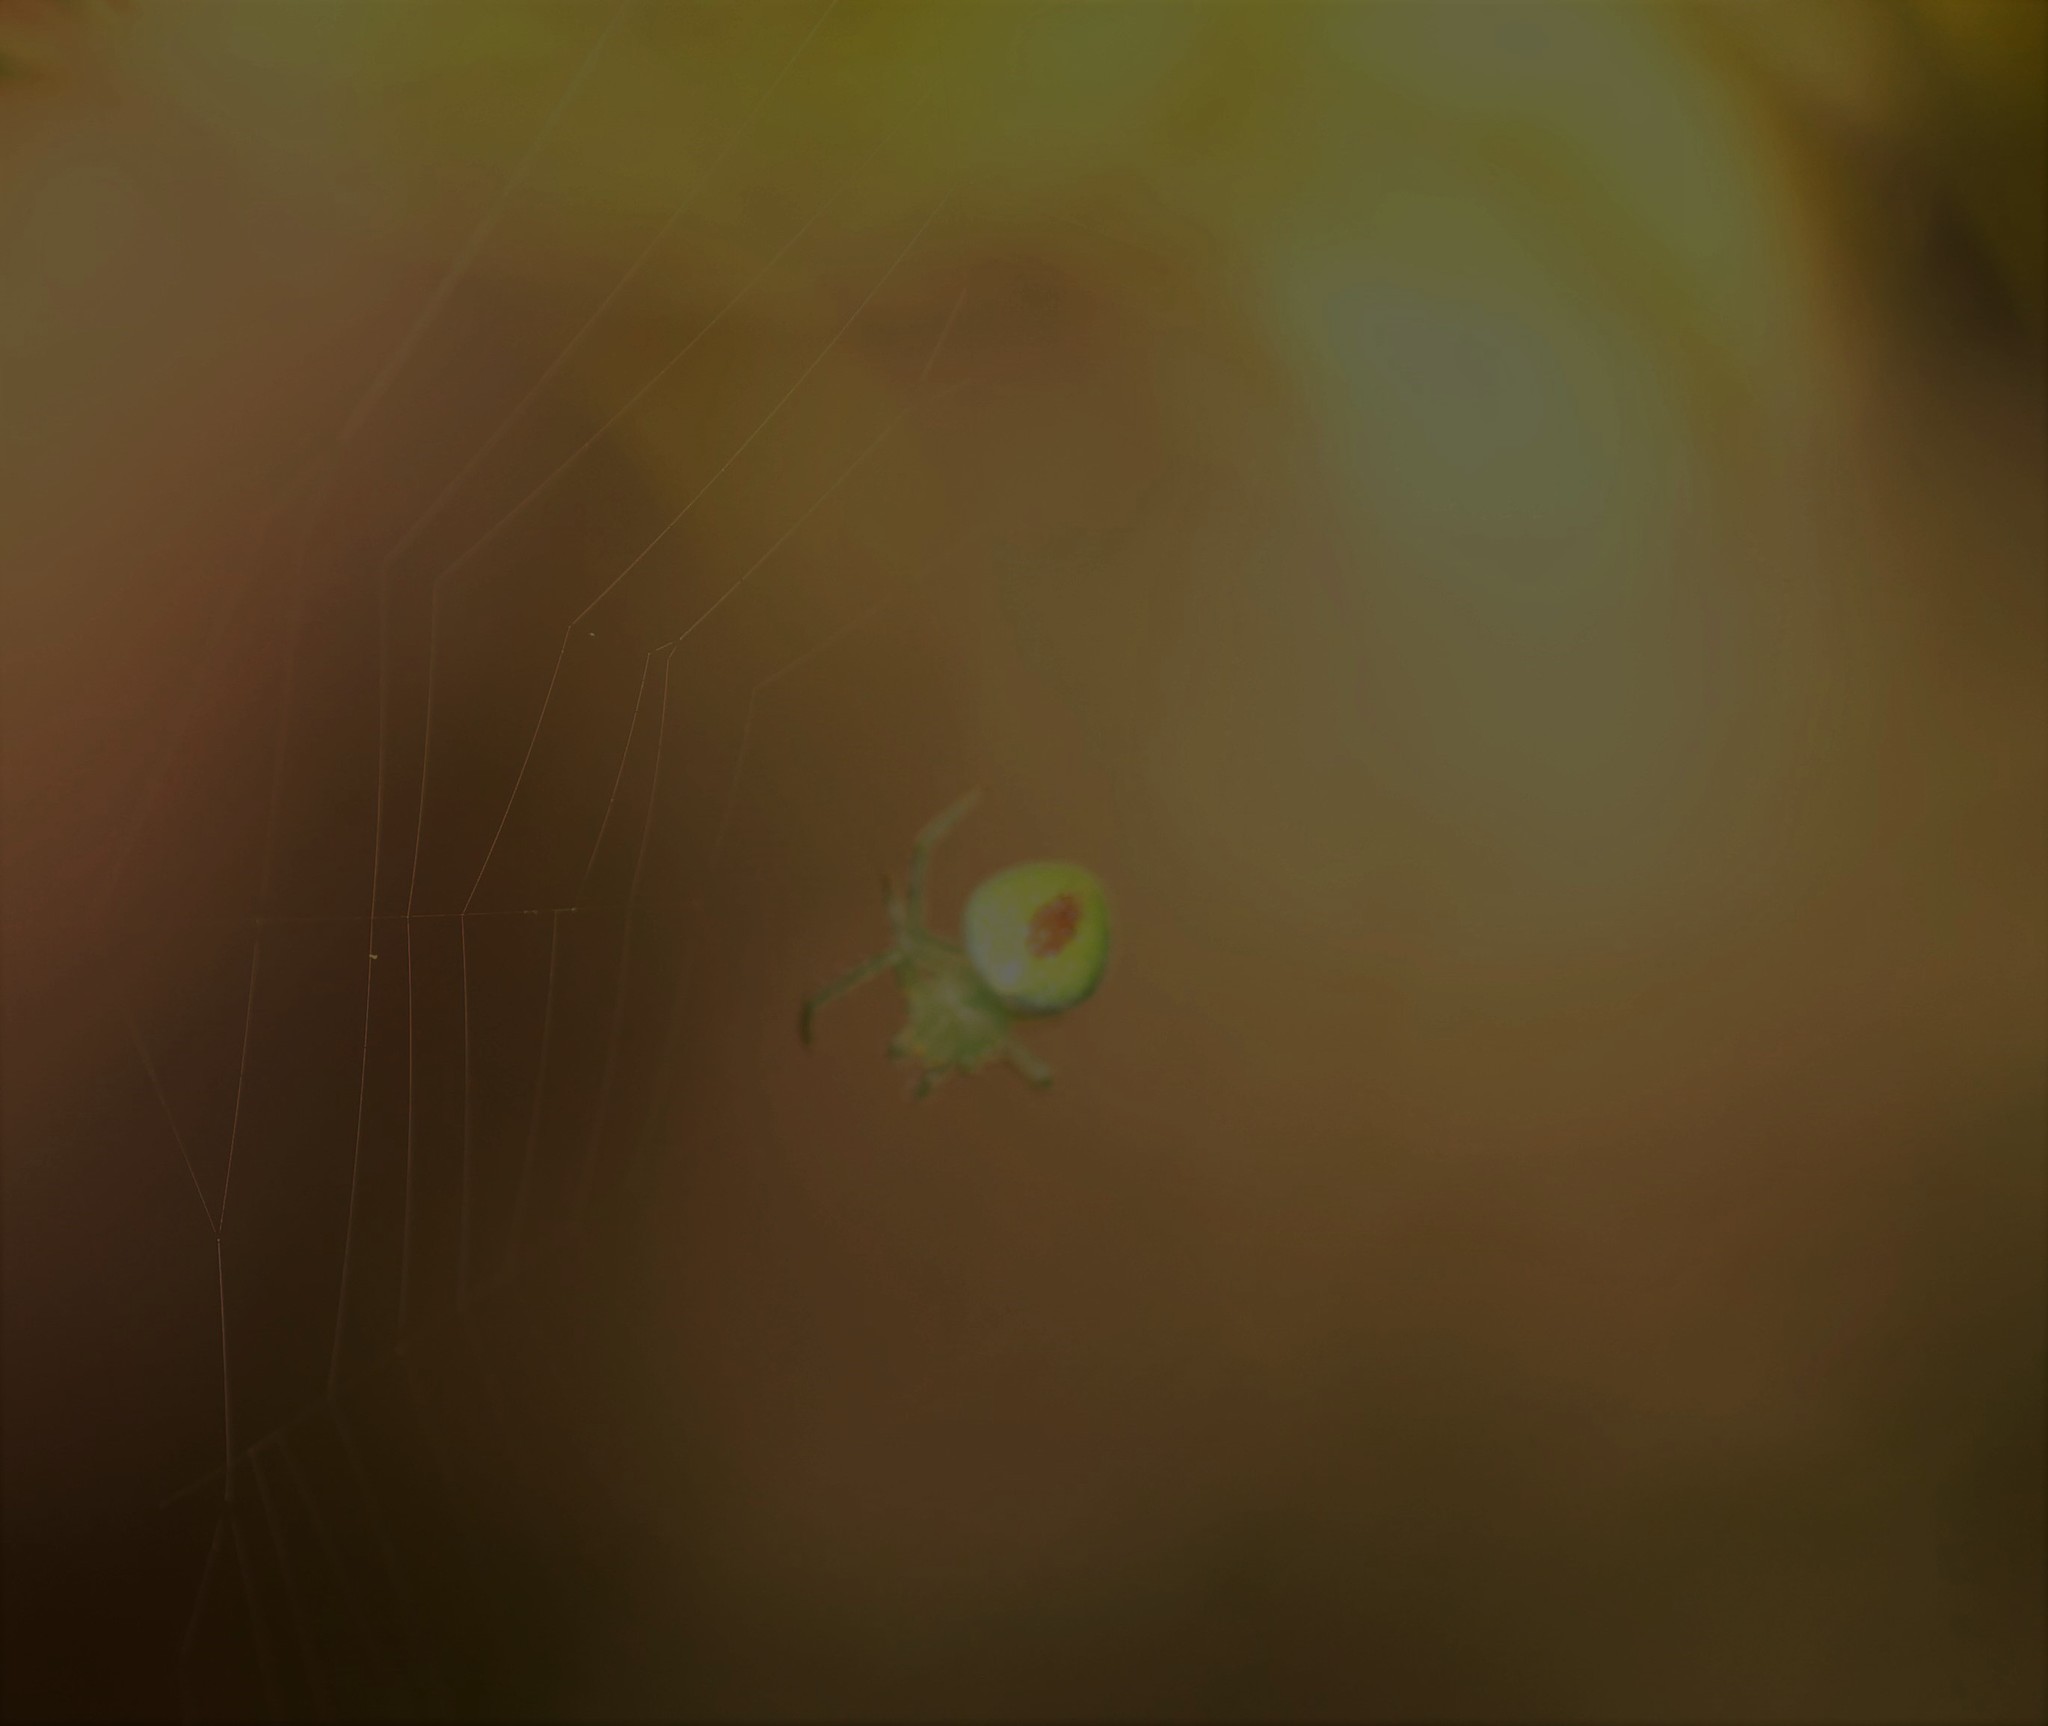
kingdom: Animalia
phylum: Arthropoda
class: Arachnida
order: Araneae
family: Araneidae
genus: Araneus
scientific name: Araneus circulissparsus
